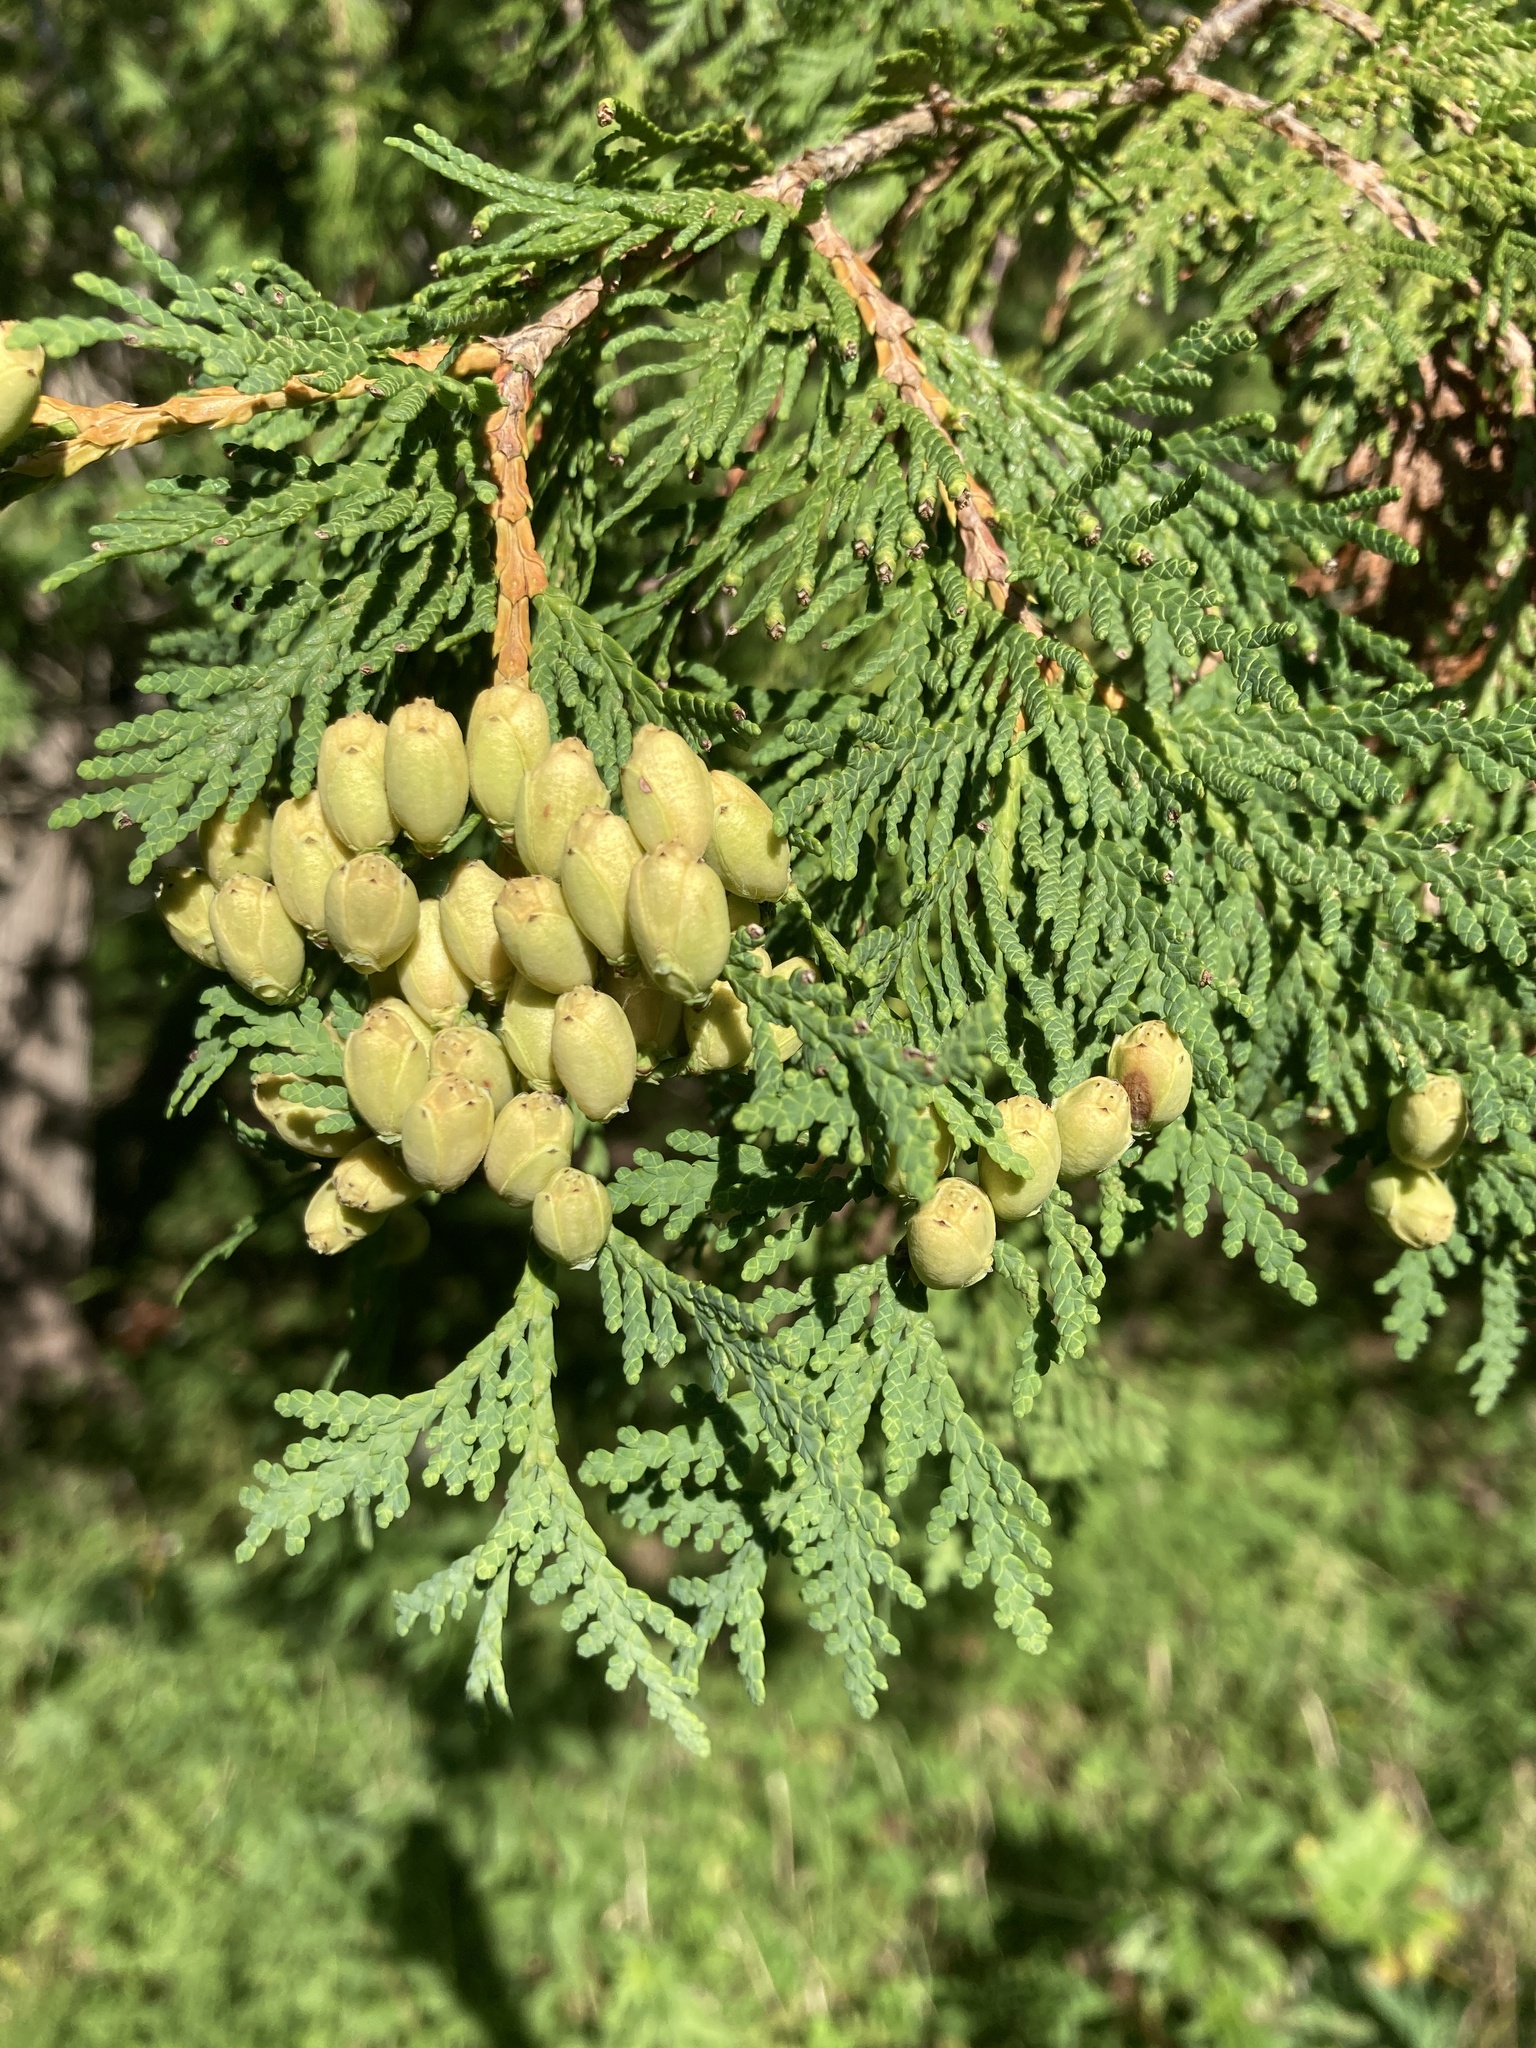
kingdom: Plantae
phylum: Tracheophyta
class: Pinopsida
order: Pinales
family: Cupressaceae
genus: Thuja
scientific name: Thuja occidentalis
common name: Northern white-cedar
